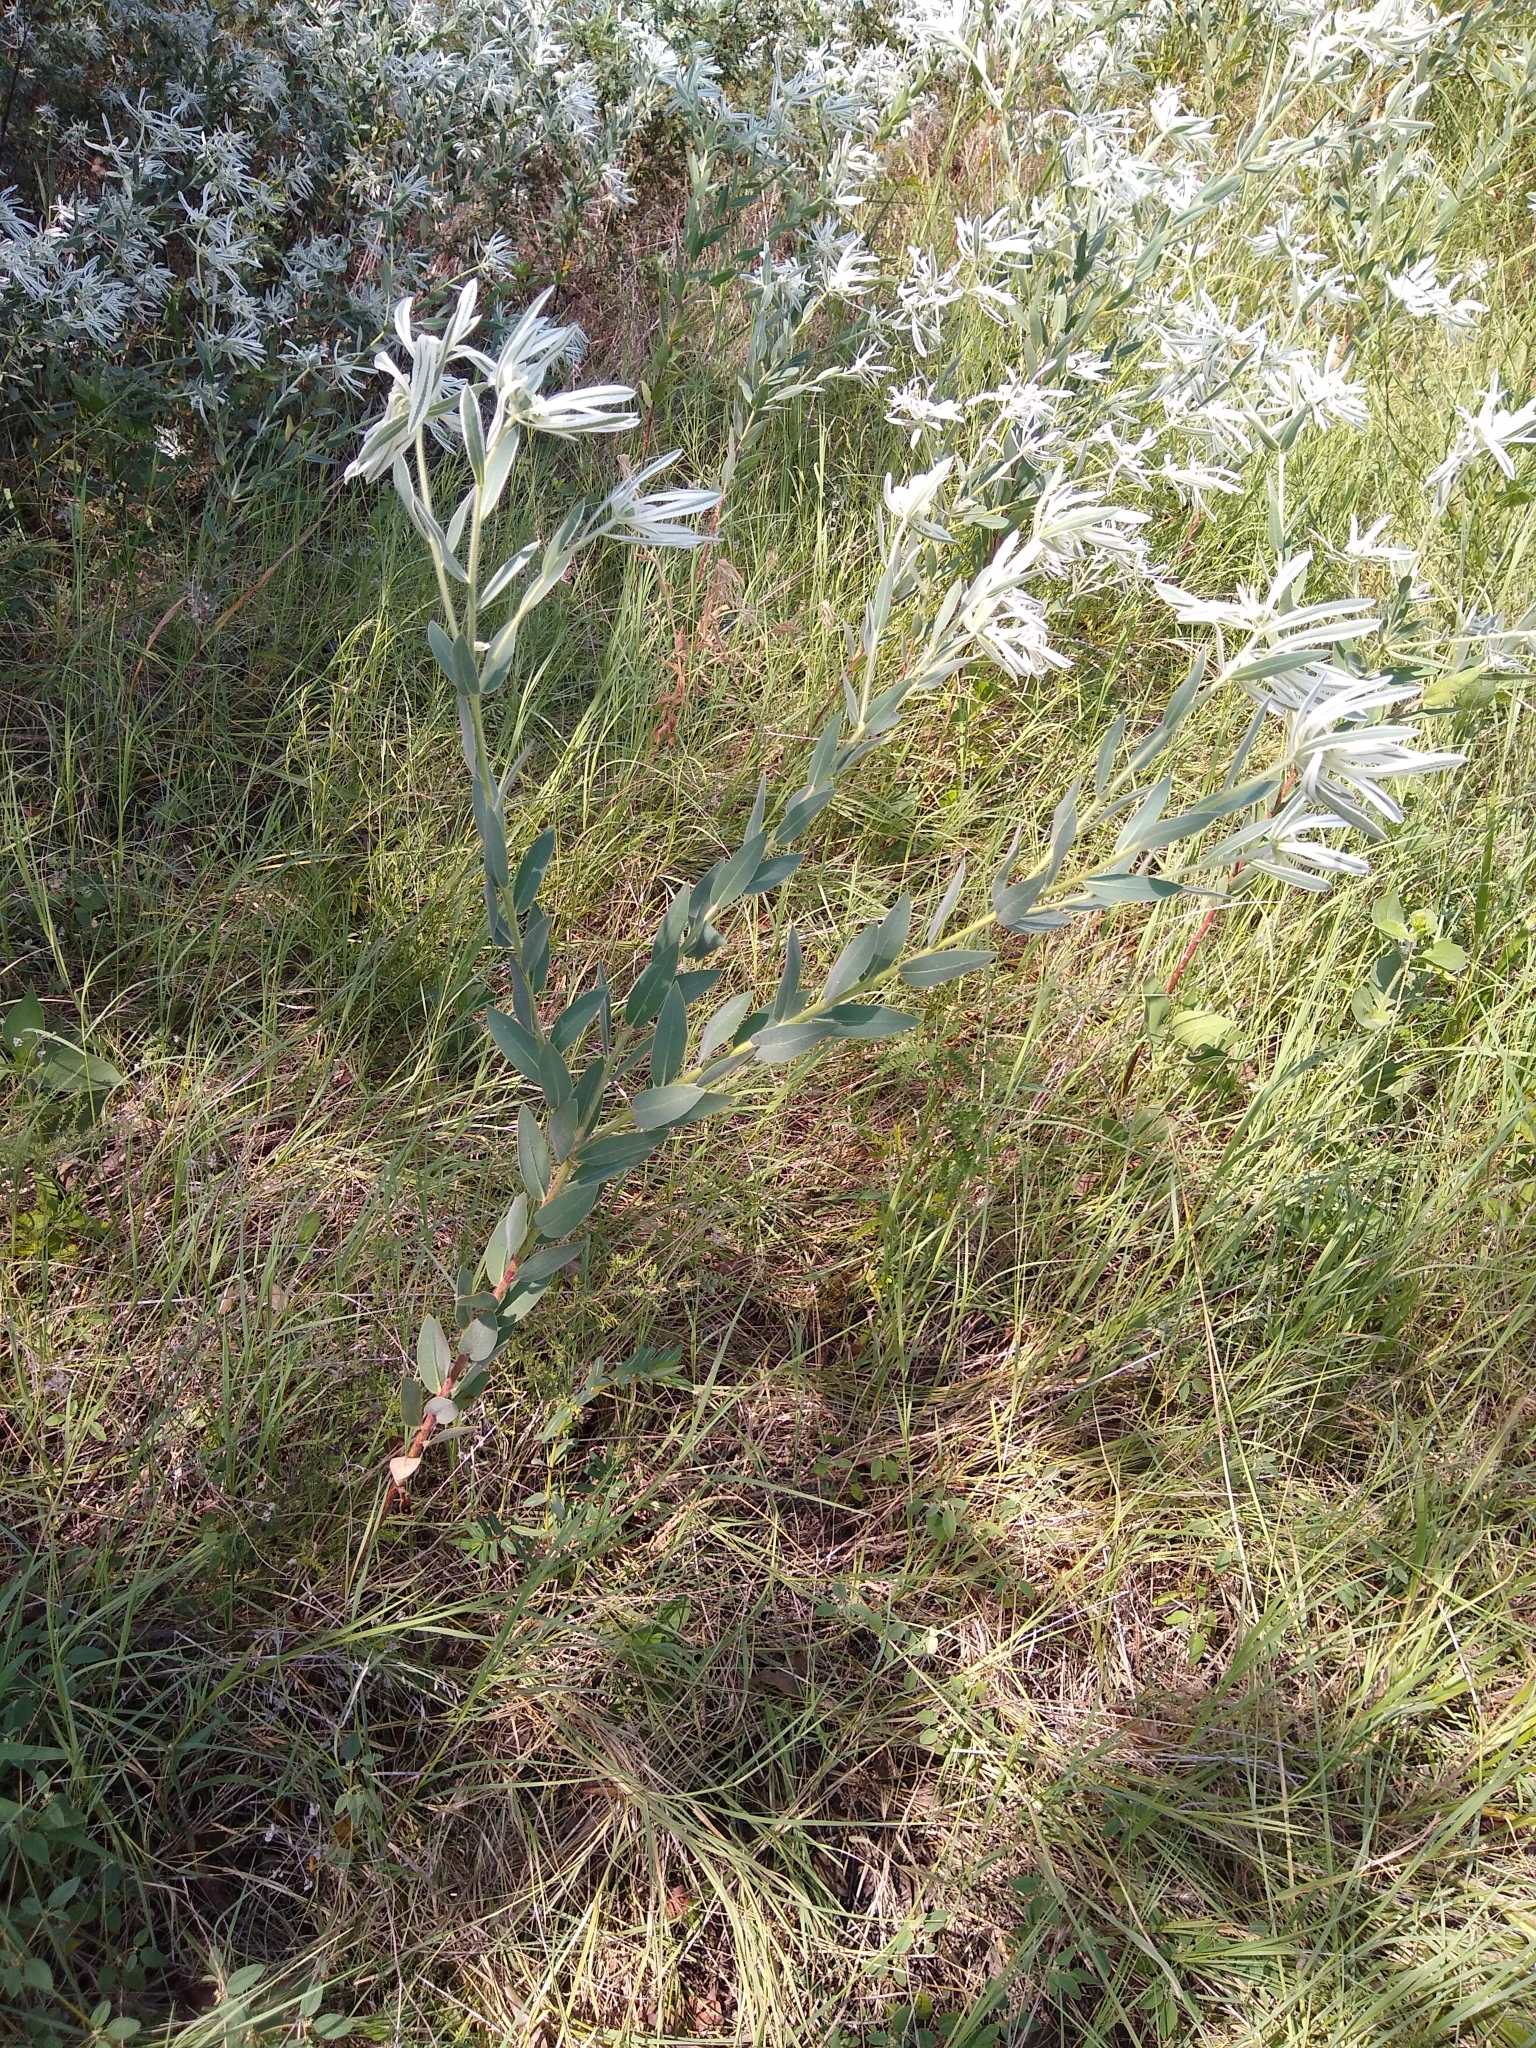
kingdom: Plantae
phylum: Tracheophyta
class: Magnoliopsida
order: Malpighiales
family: Euphorbiaceae
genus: Euphorbia
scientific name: Euphorbia bicolor
